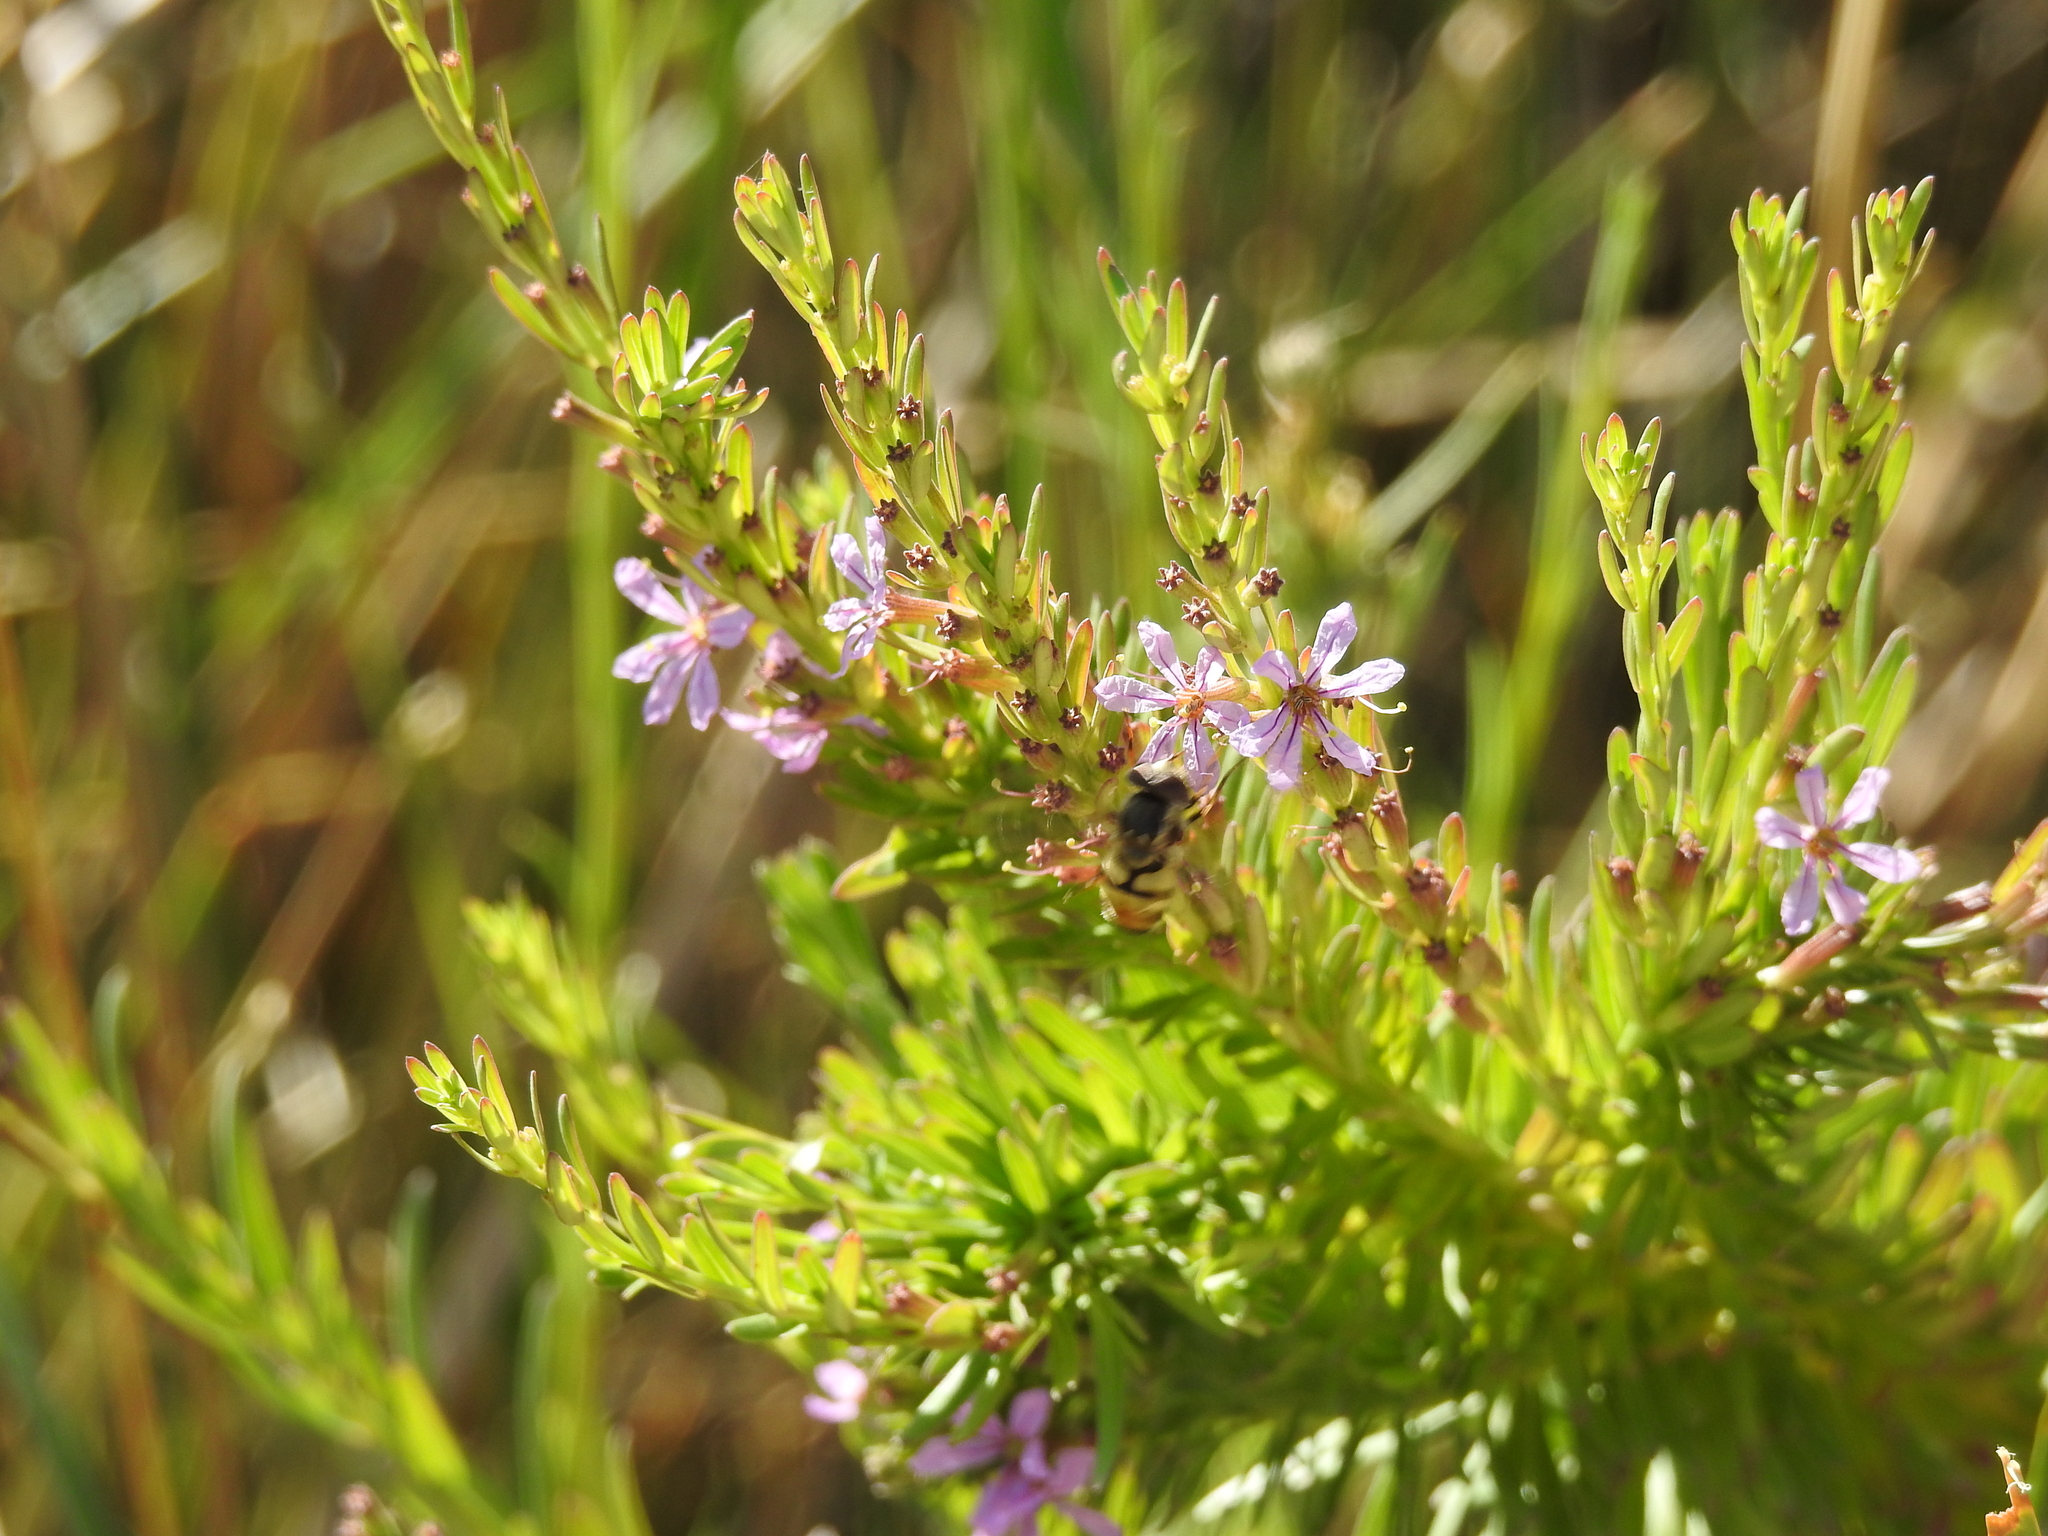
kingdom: Plantae
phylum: Tracheophyta
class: Magnoliopsida
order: Myrtales
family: Lythraceae
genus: Lythrum
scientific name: Lythrum californicum
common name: California loosestrife
